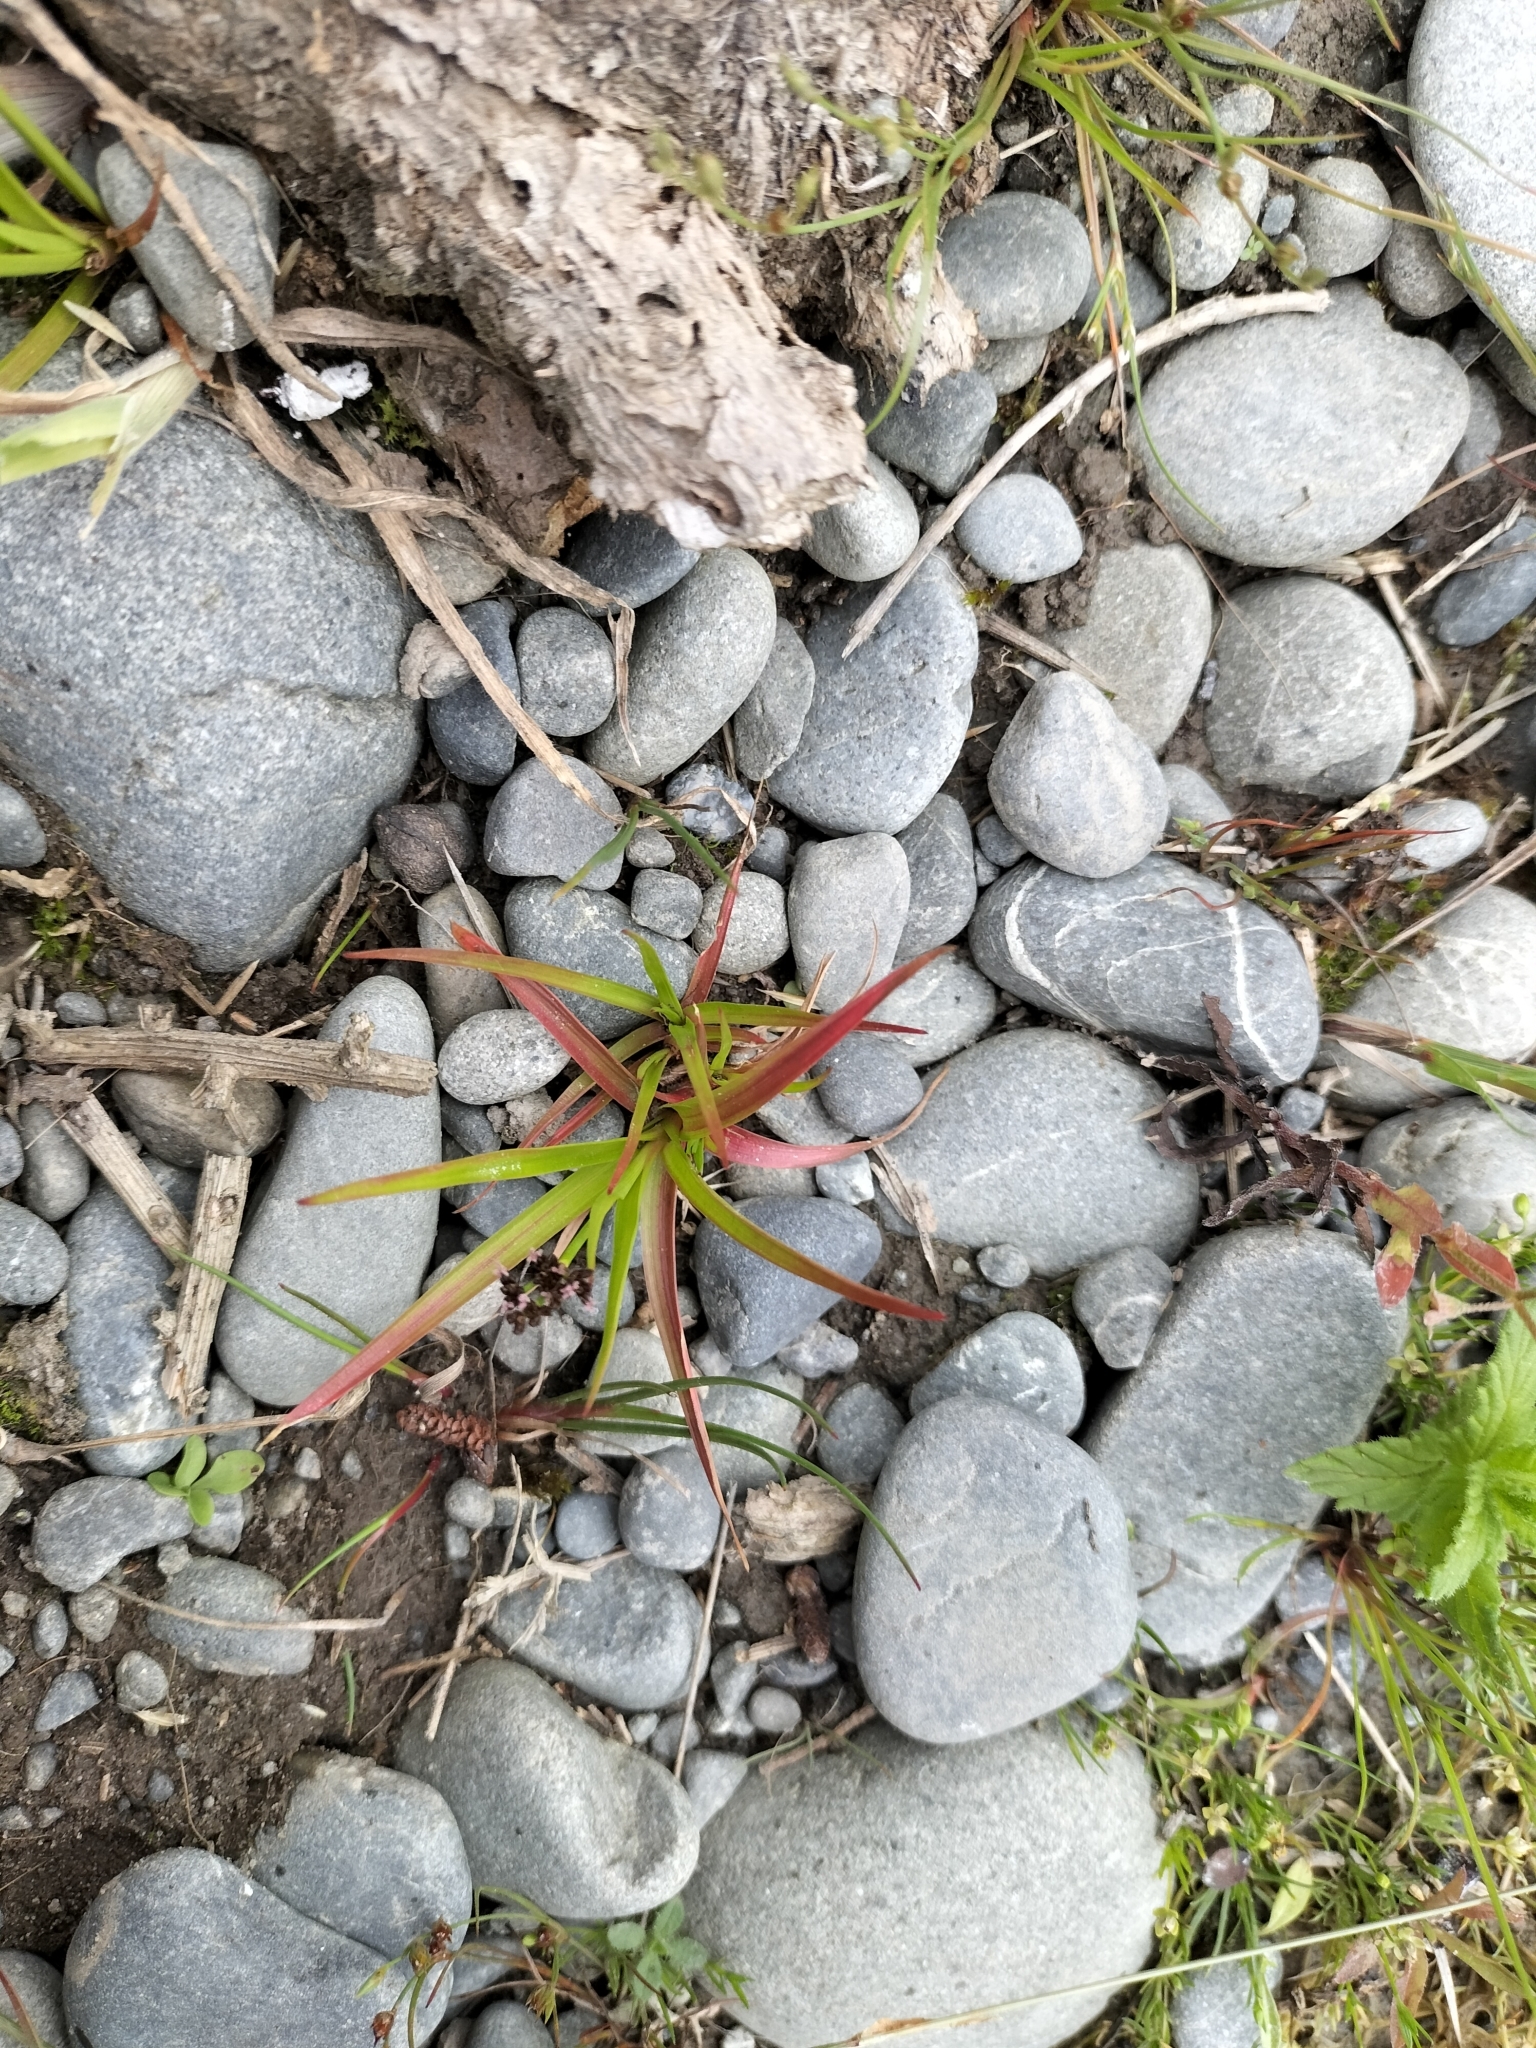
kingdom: Plantae
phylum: Tracheophyta
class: Liliopsida
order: Poales
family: Juncaceae
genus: Juncus
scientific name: Juncus planifolius
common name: Broadleaf rush
